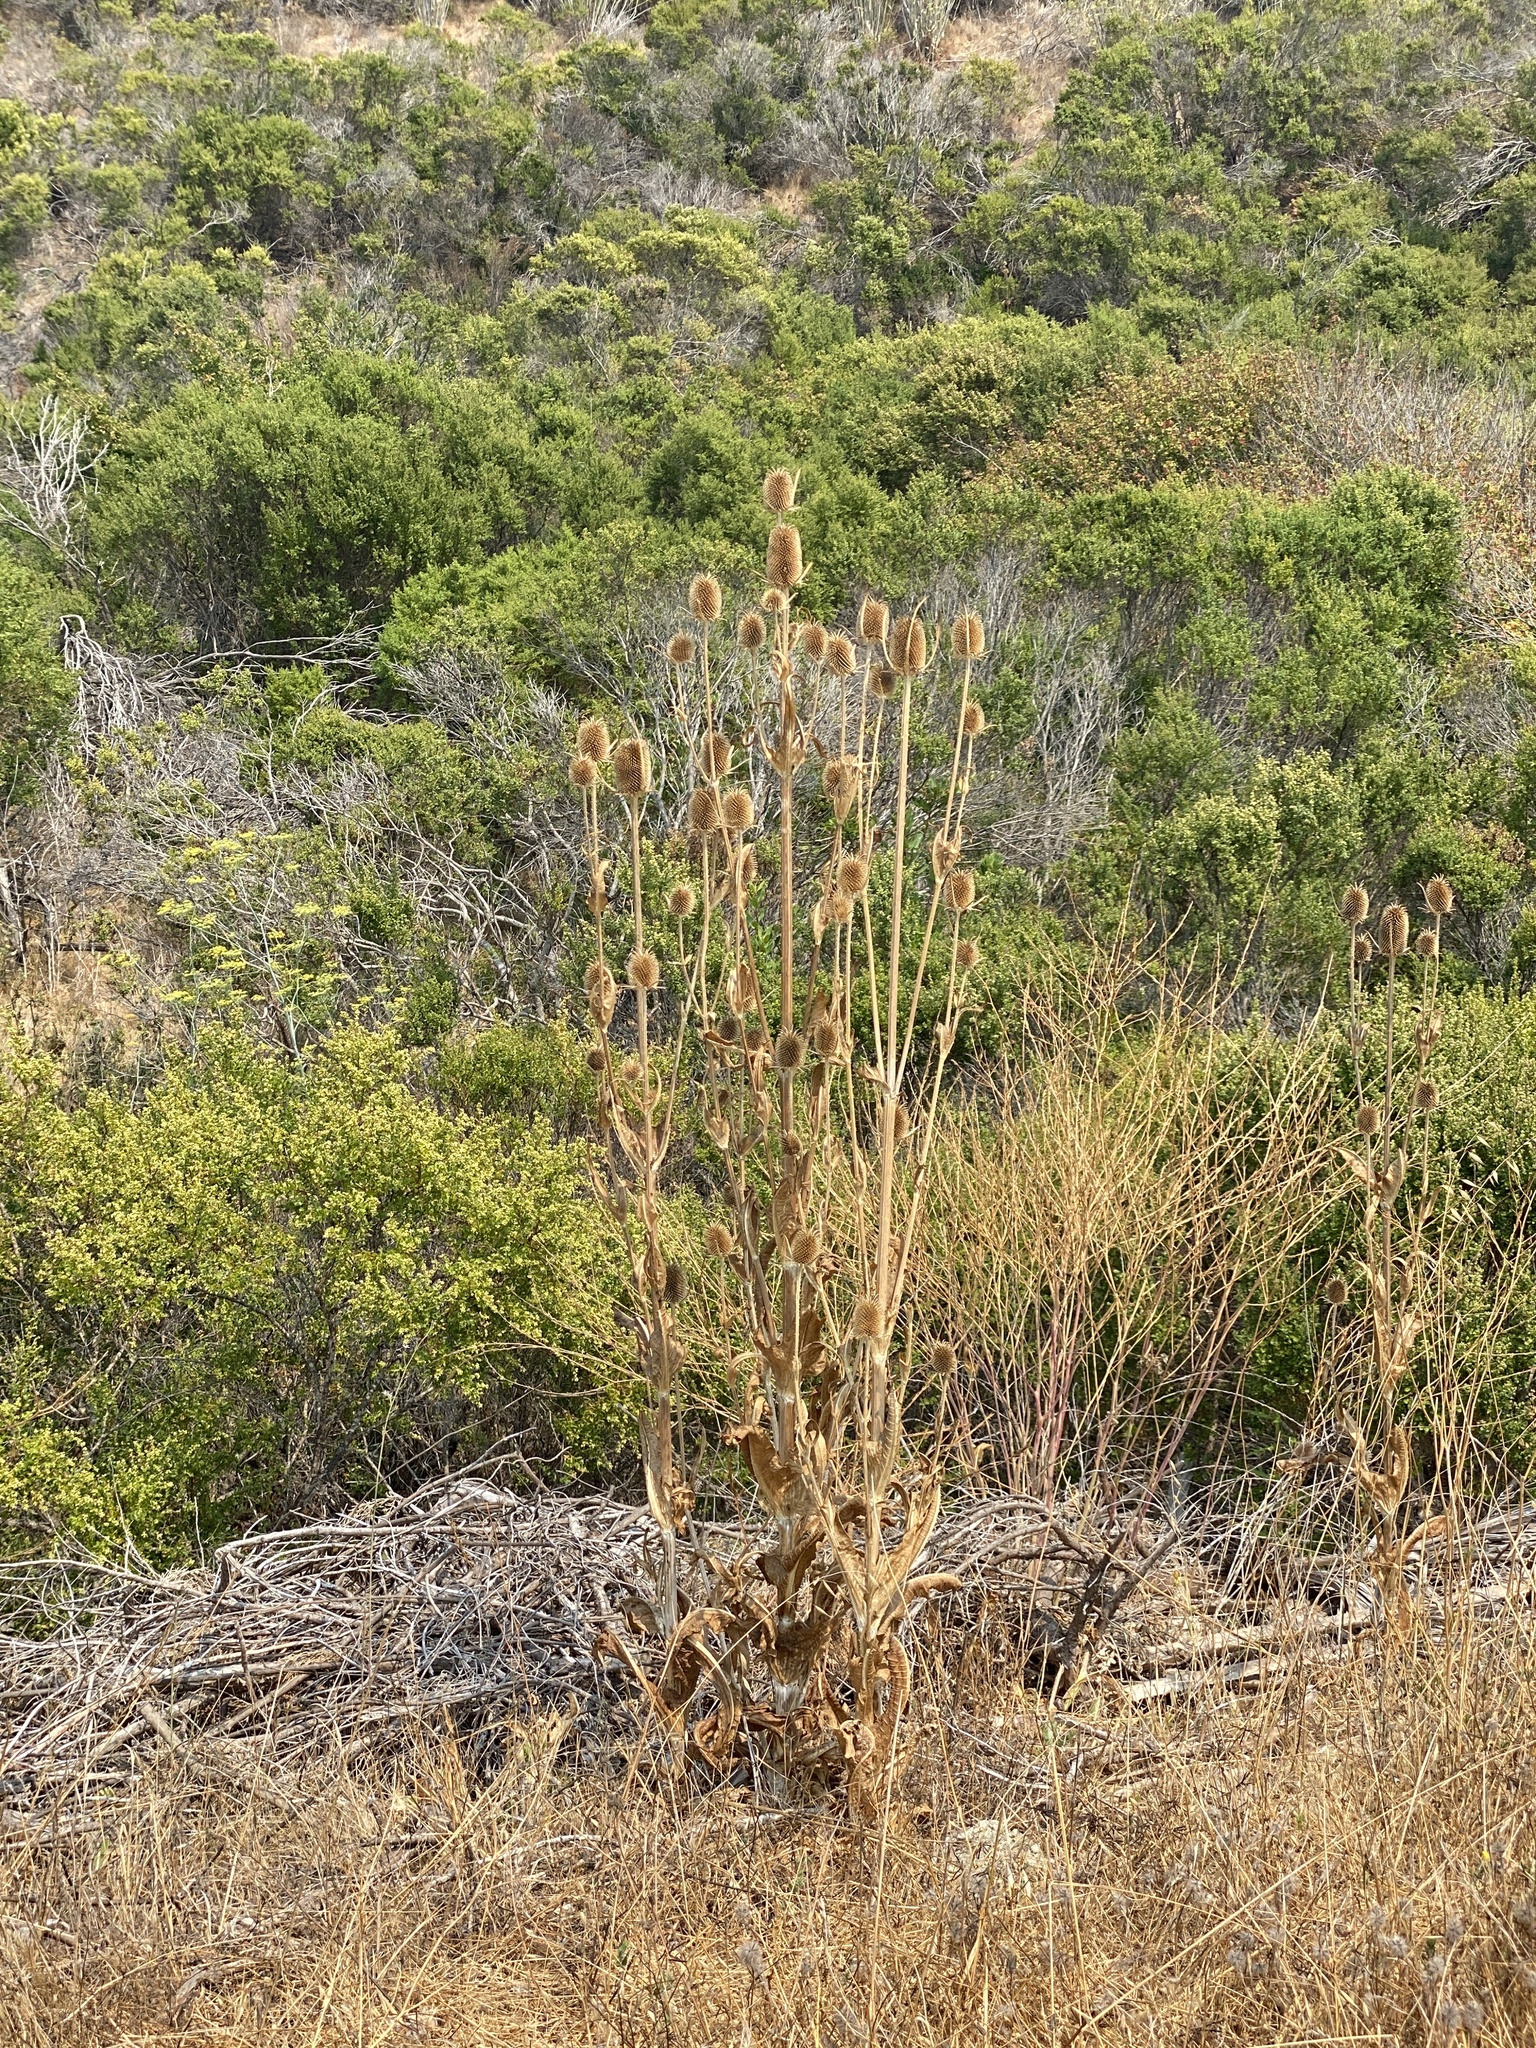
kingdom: Plantae
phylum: Tracheophyta
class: Magnoliopsida
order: Dipsacales
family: Caprifoliaceae
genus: Dipsacus
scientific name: Dipsacus sativus
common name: Fuller's teasel
